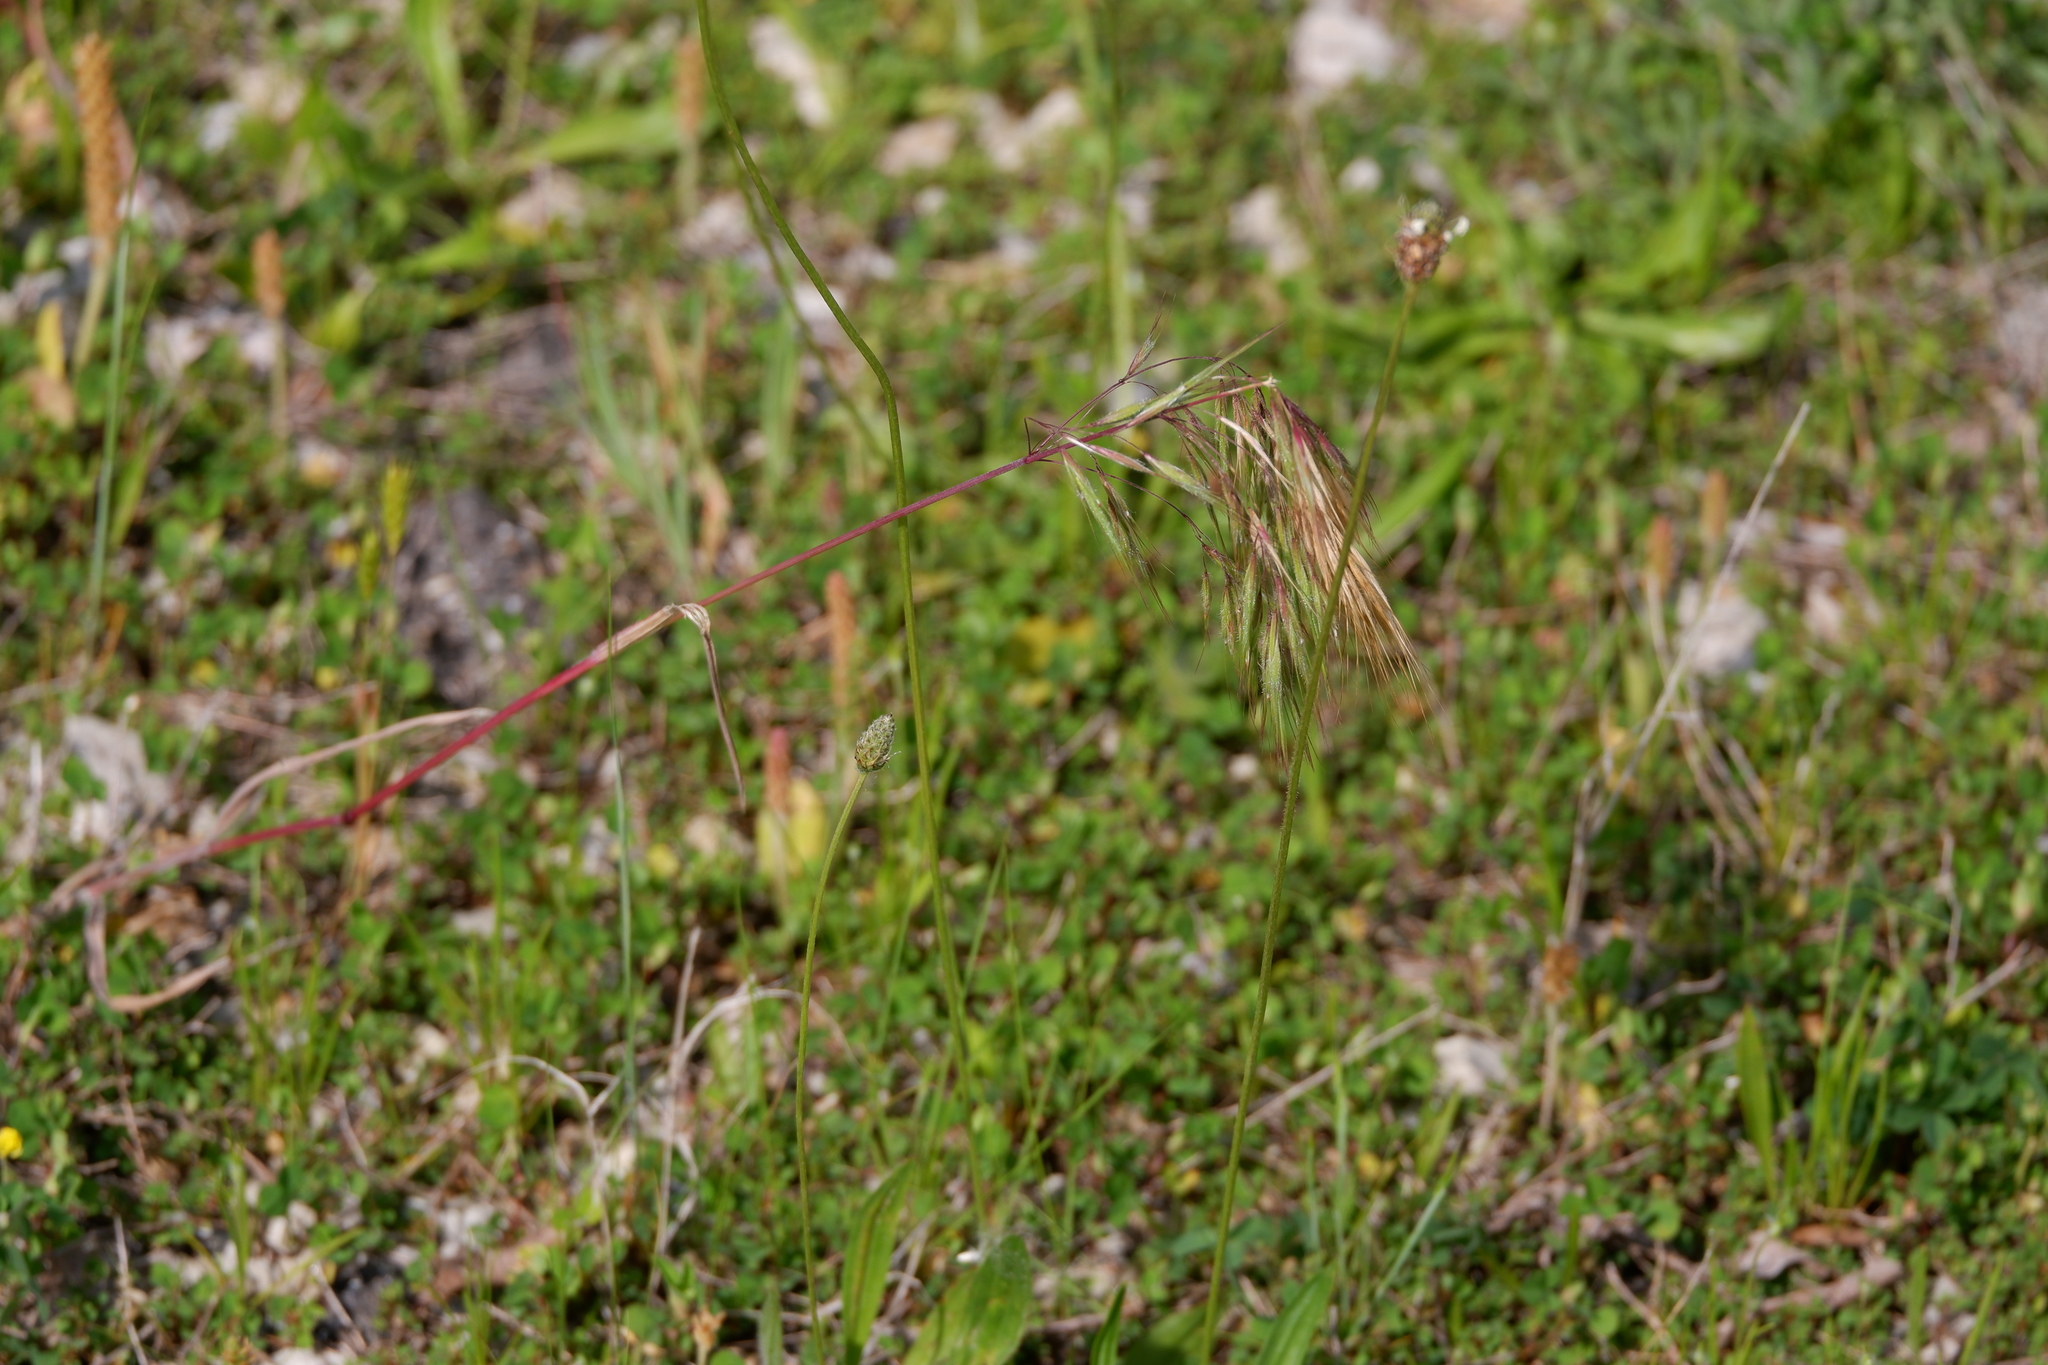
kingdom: Plantae
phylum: Tracheophyta
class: Liliopsida
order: Poales
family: Poaceae
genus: Bromus
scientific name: Bromus tectorum
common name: Cheatgrass
